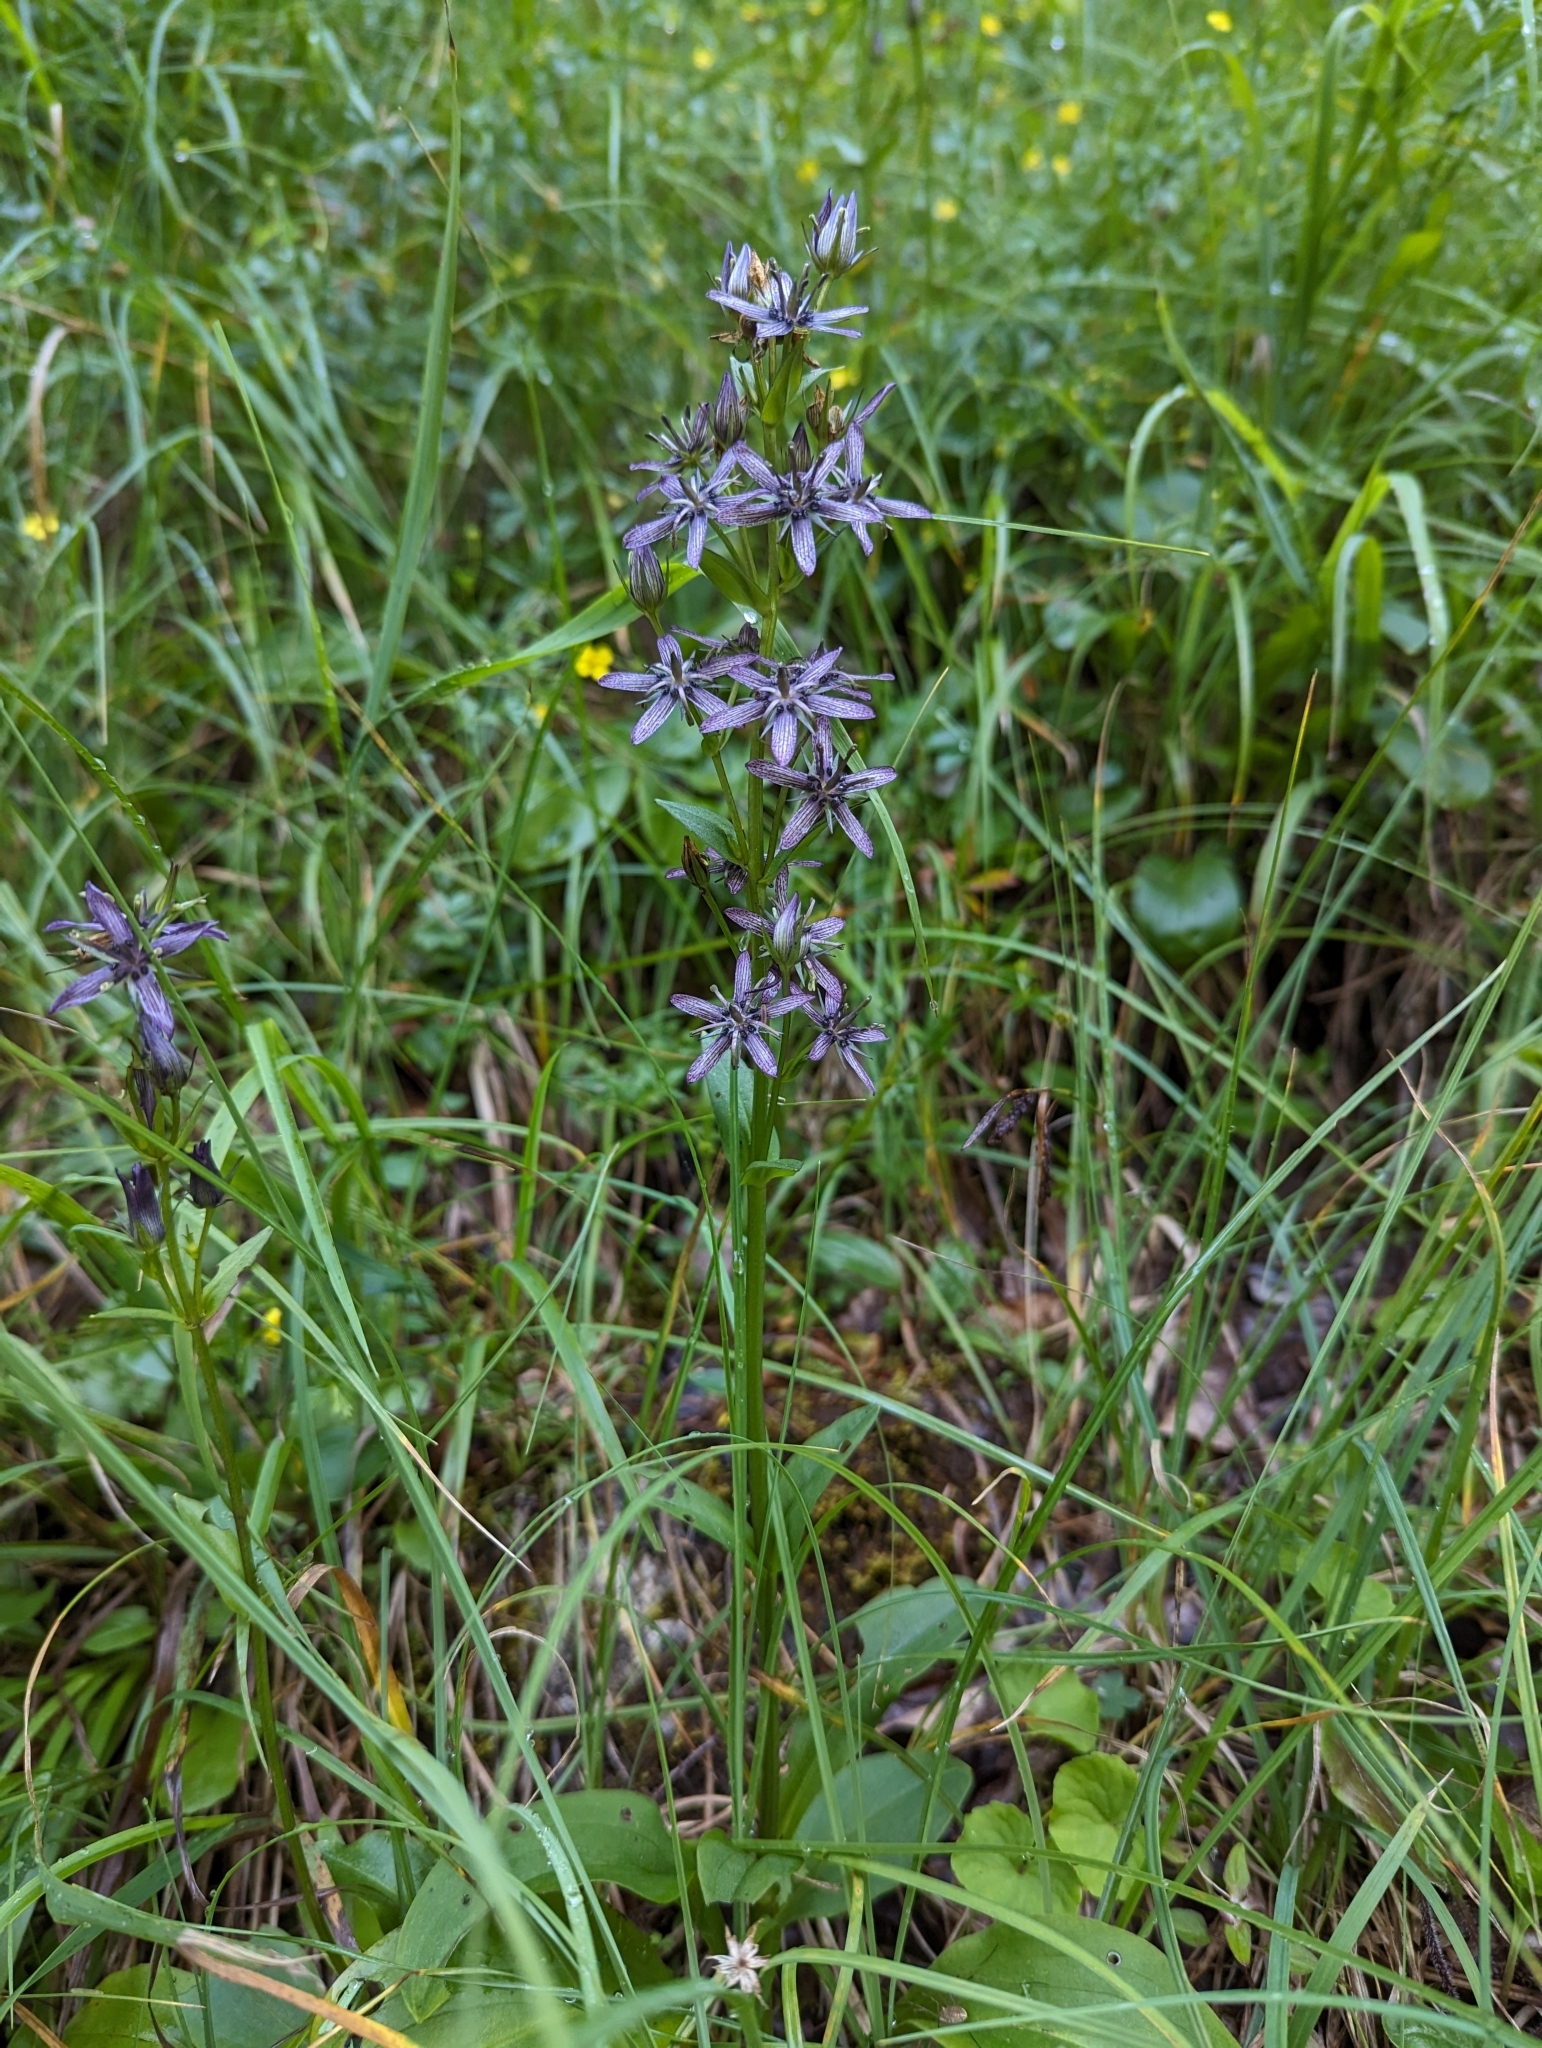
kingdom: Plantae
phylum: Tracheophyta
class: Magnoliopsida
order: Gentianales
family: Gentianaceae
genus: Swertia
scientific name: Swertia perennis
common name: Alpine bog swertia
